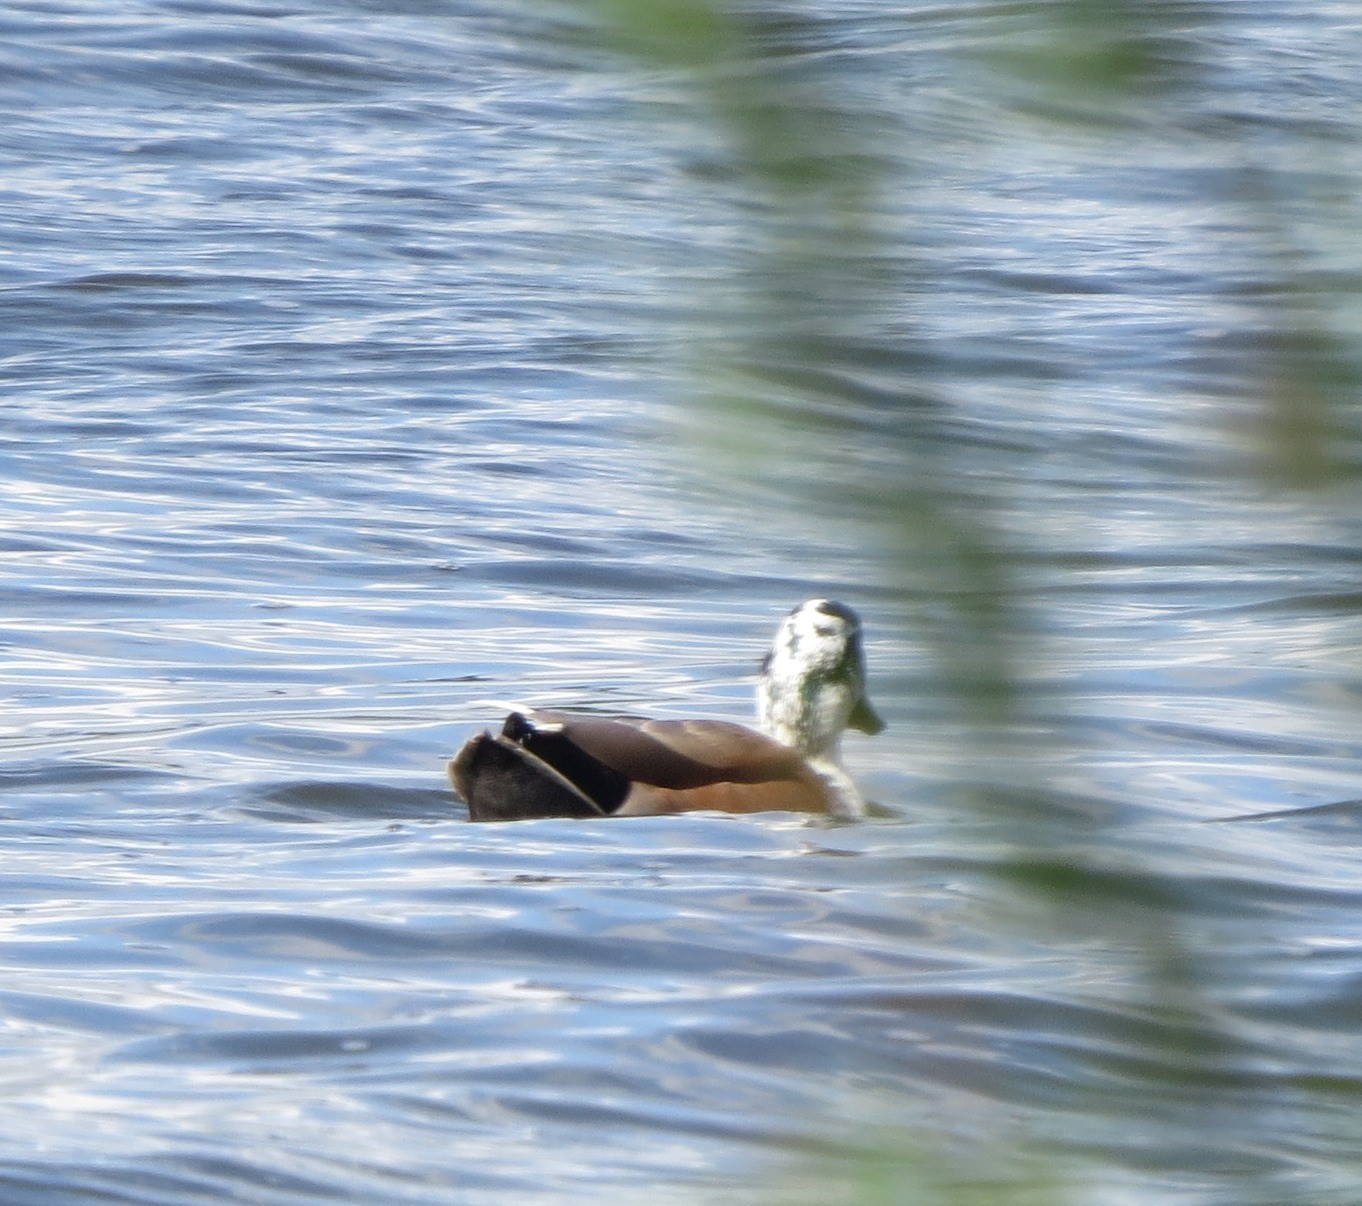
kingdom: Animalia
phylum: Chordata
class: Aves
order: Anseriformes
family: Anatidae
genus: Anas
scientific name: Anas platyrhynchos
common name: Mallard
